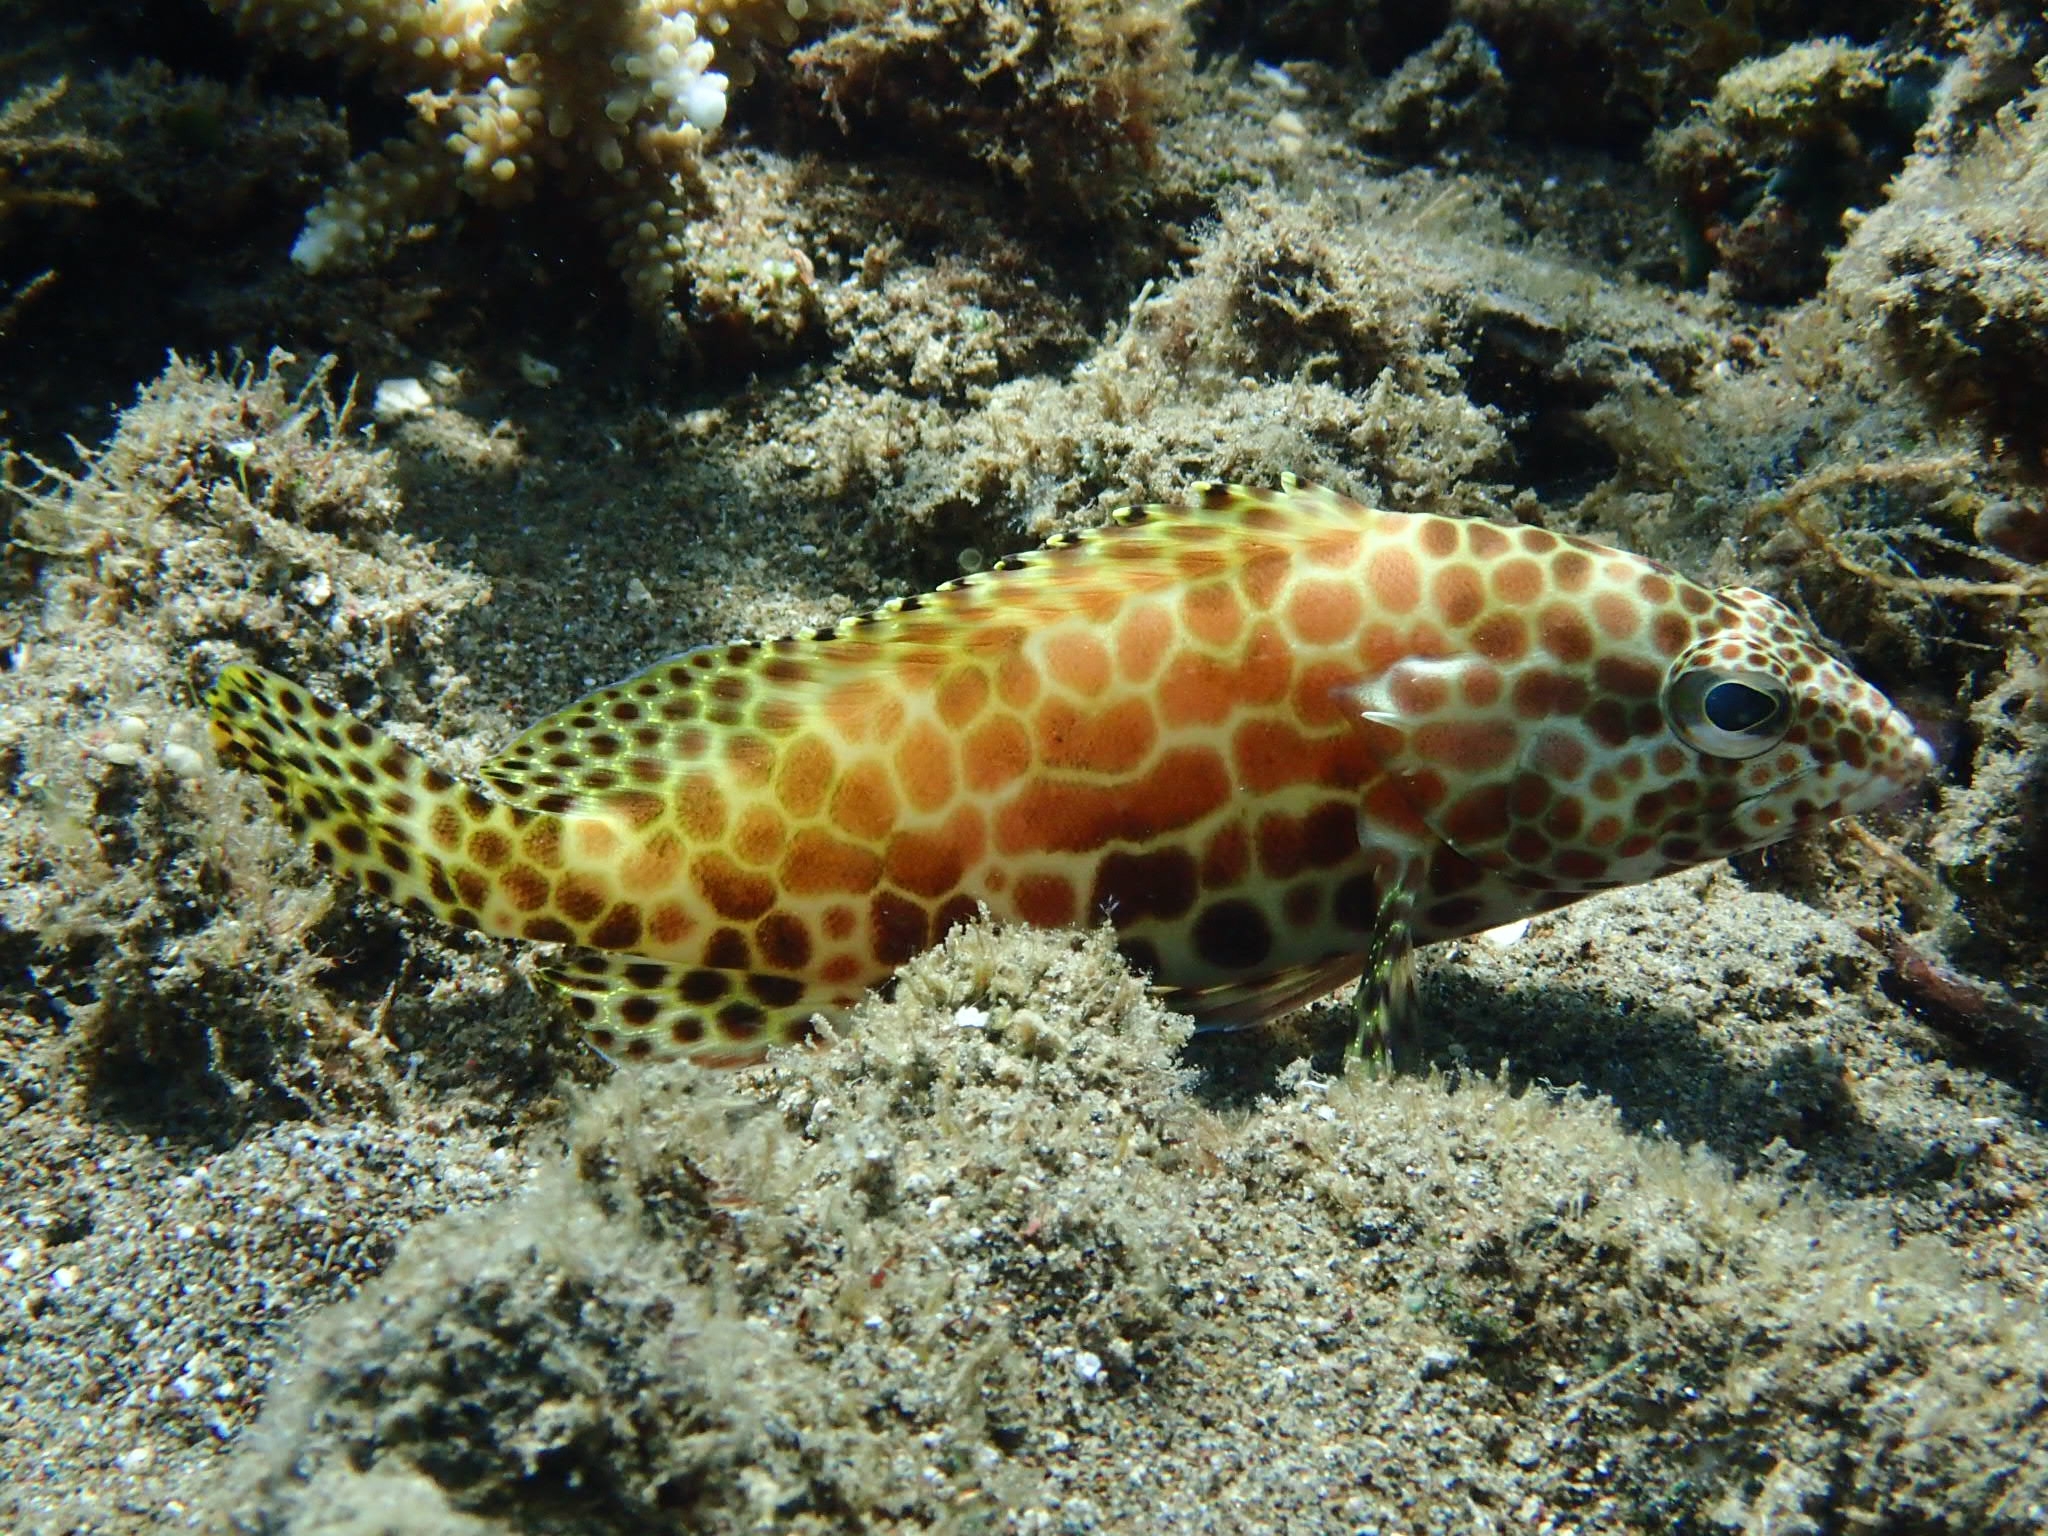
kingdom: Animalia
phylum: Chordata
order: Perciformes
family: Serranidae
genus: Epinephelus
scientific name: Epinephelus merra
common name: Honeycomb grouper
